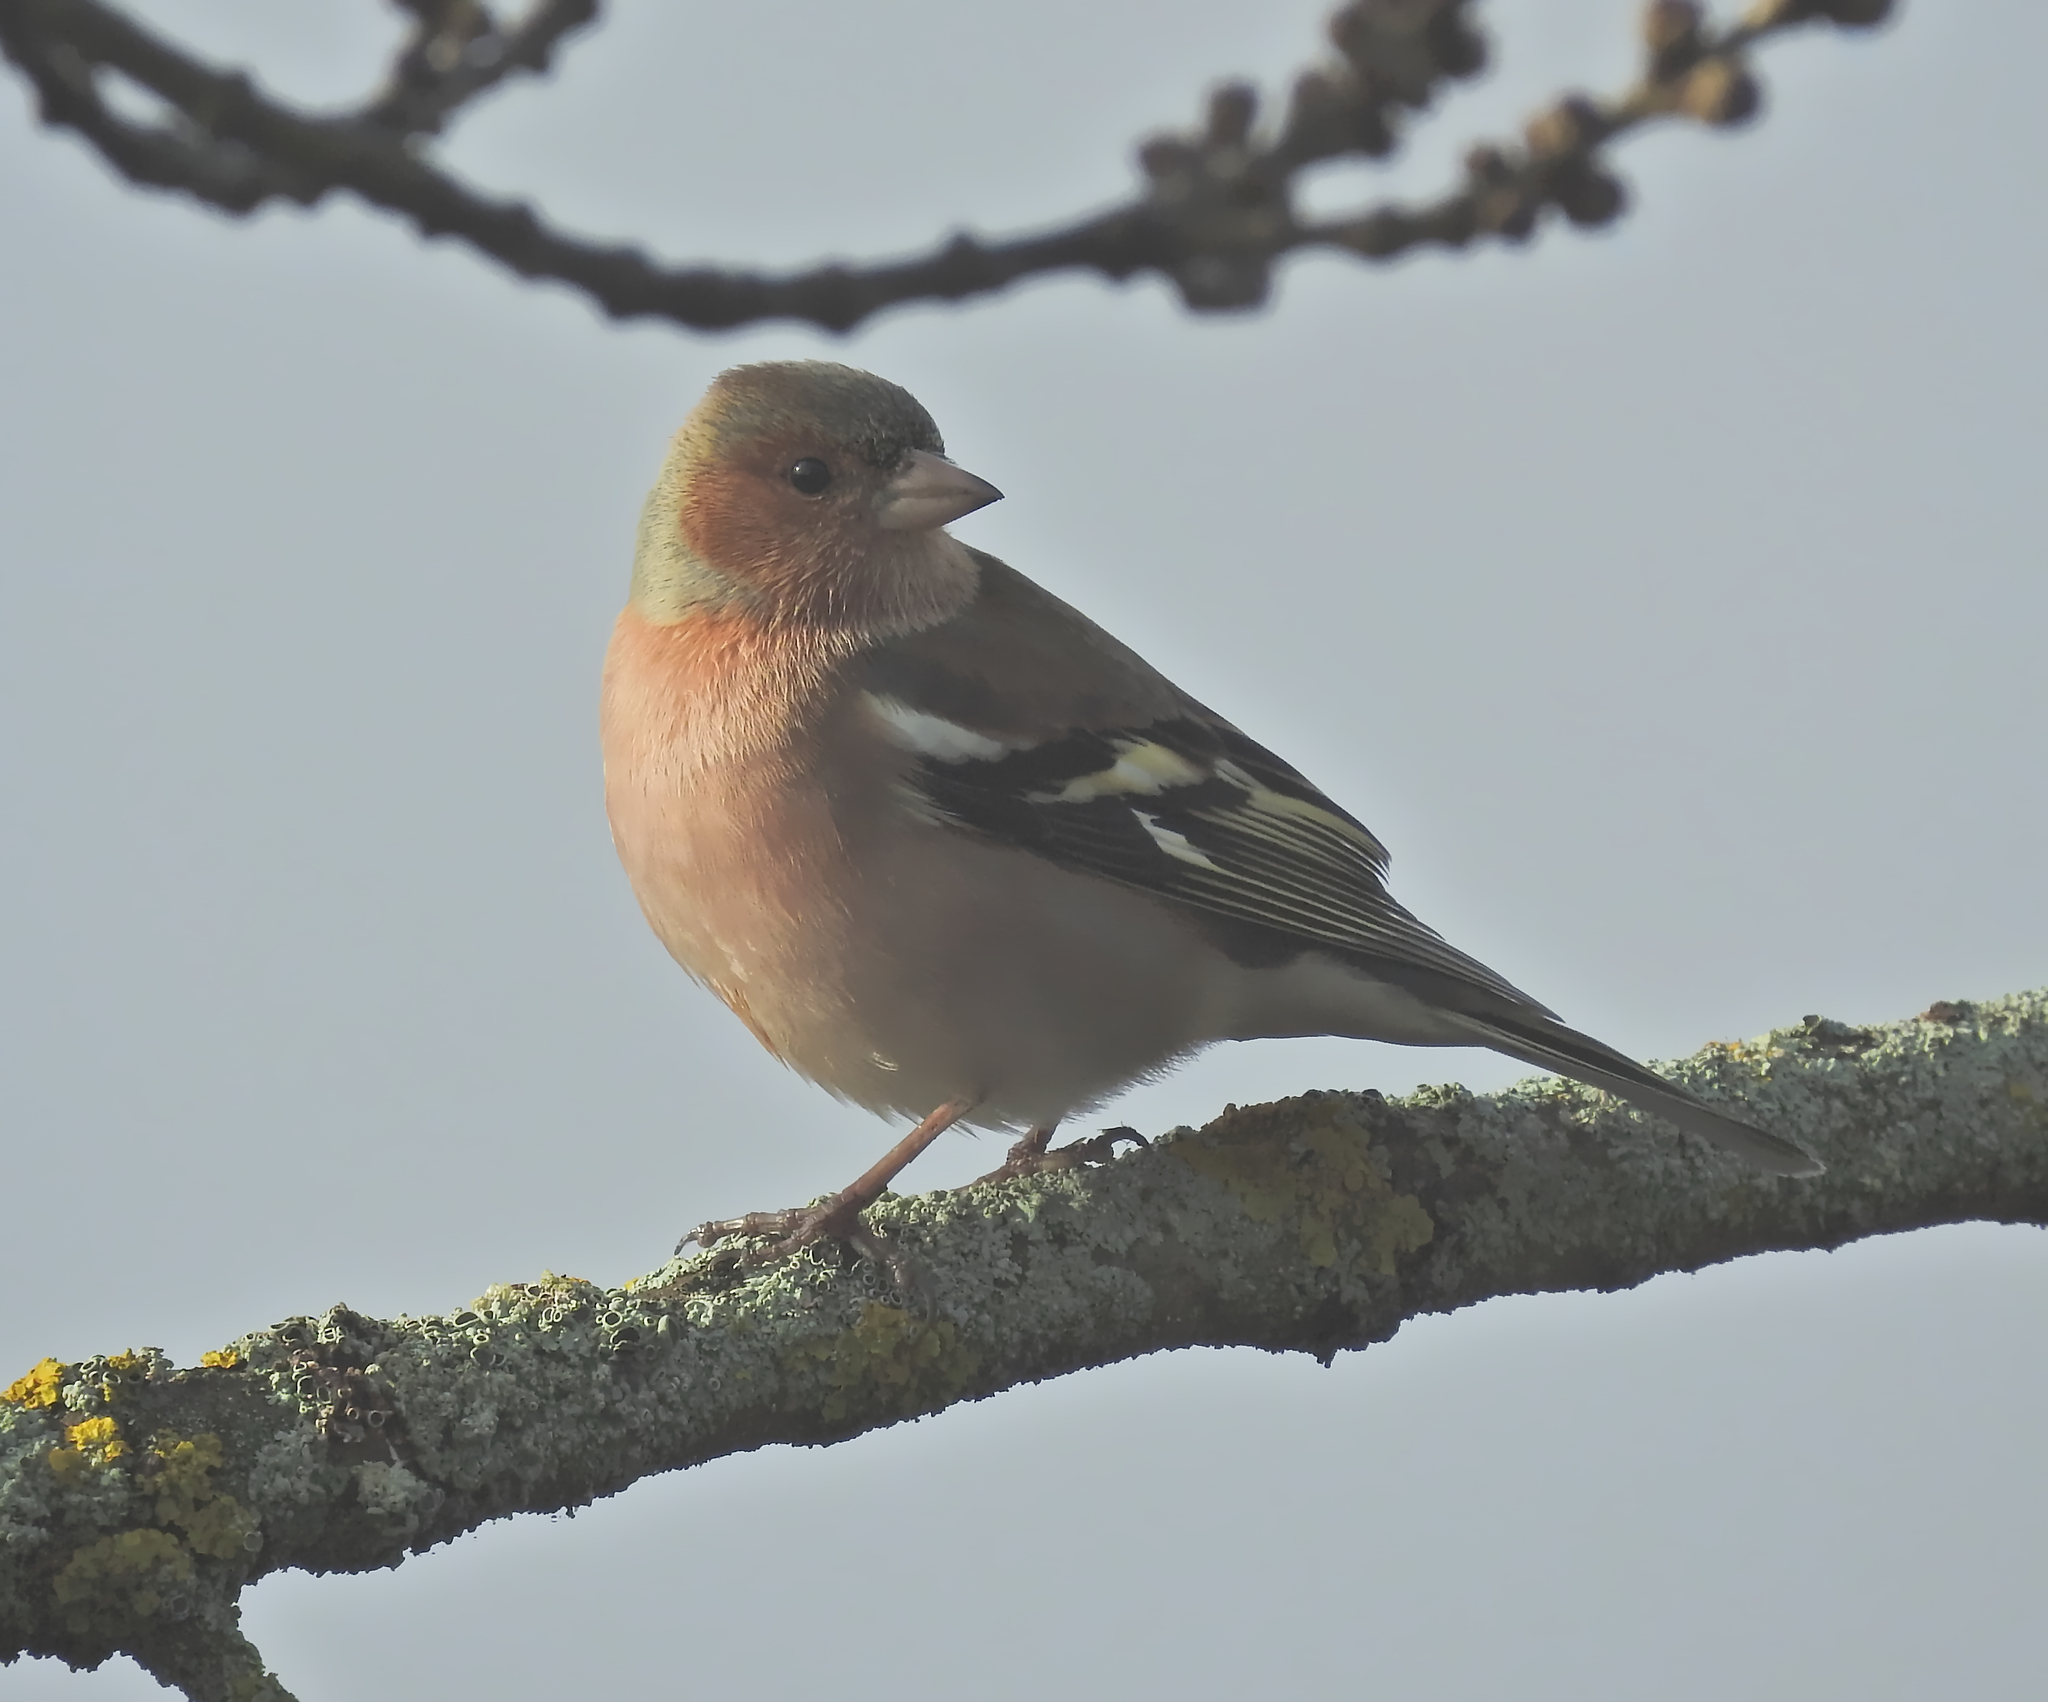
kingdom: Animalia
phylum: Chordata
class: Aves
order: Passeriformes
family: Fringillidae
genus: Fringilla
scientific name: Fringilla coelebs
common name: Common chaffinch
